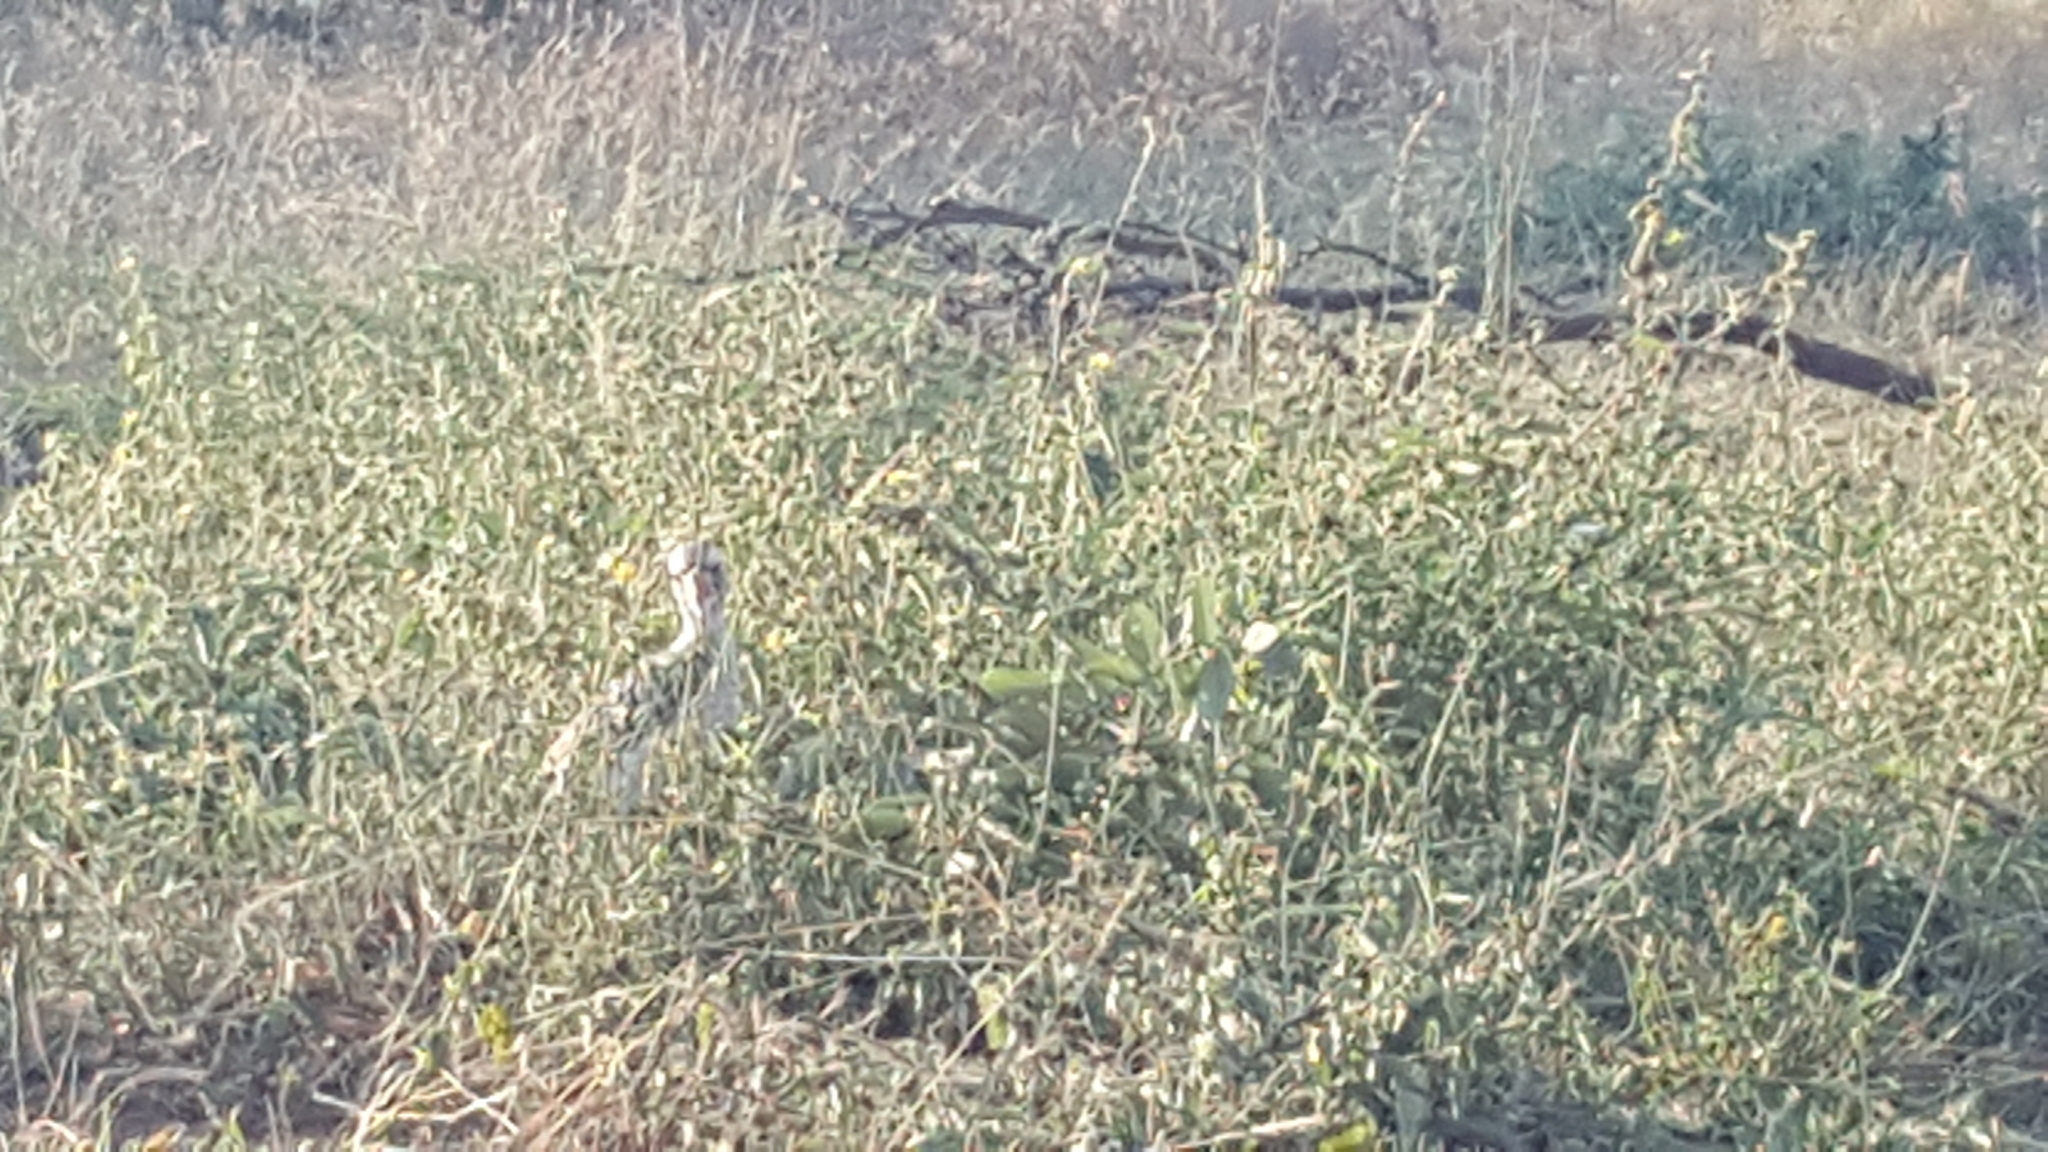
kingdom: Animalia
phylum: Chordata
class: Aves
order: Bucerotiformes
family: Bucerotidae
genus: Tockus
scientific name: Tockus rufirostris
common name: Southern red-billed hornbill
